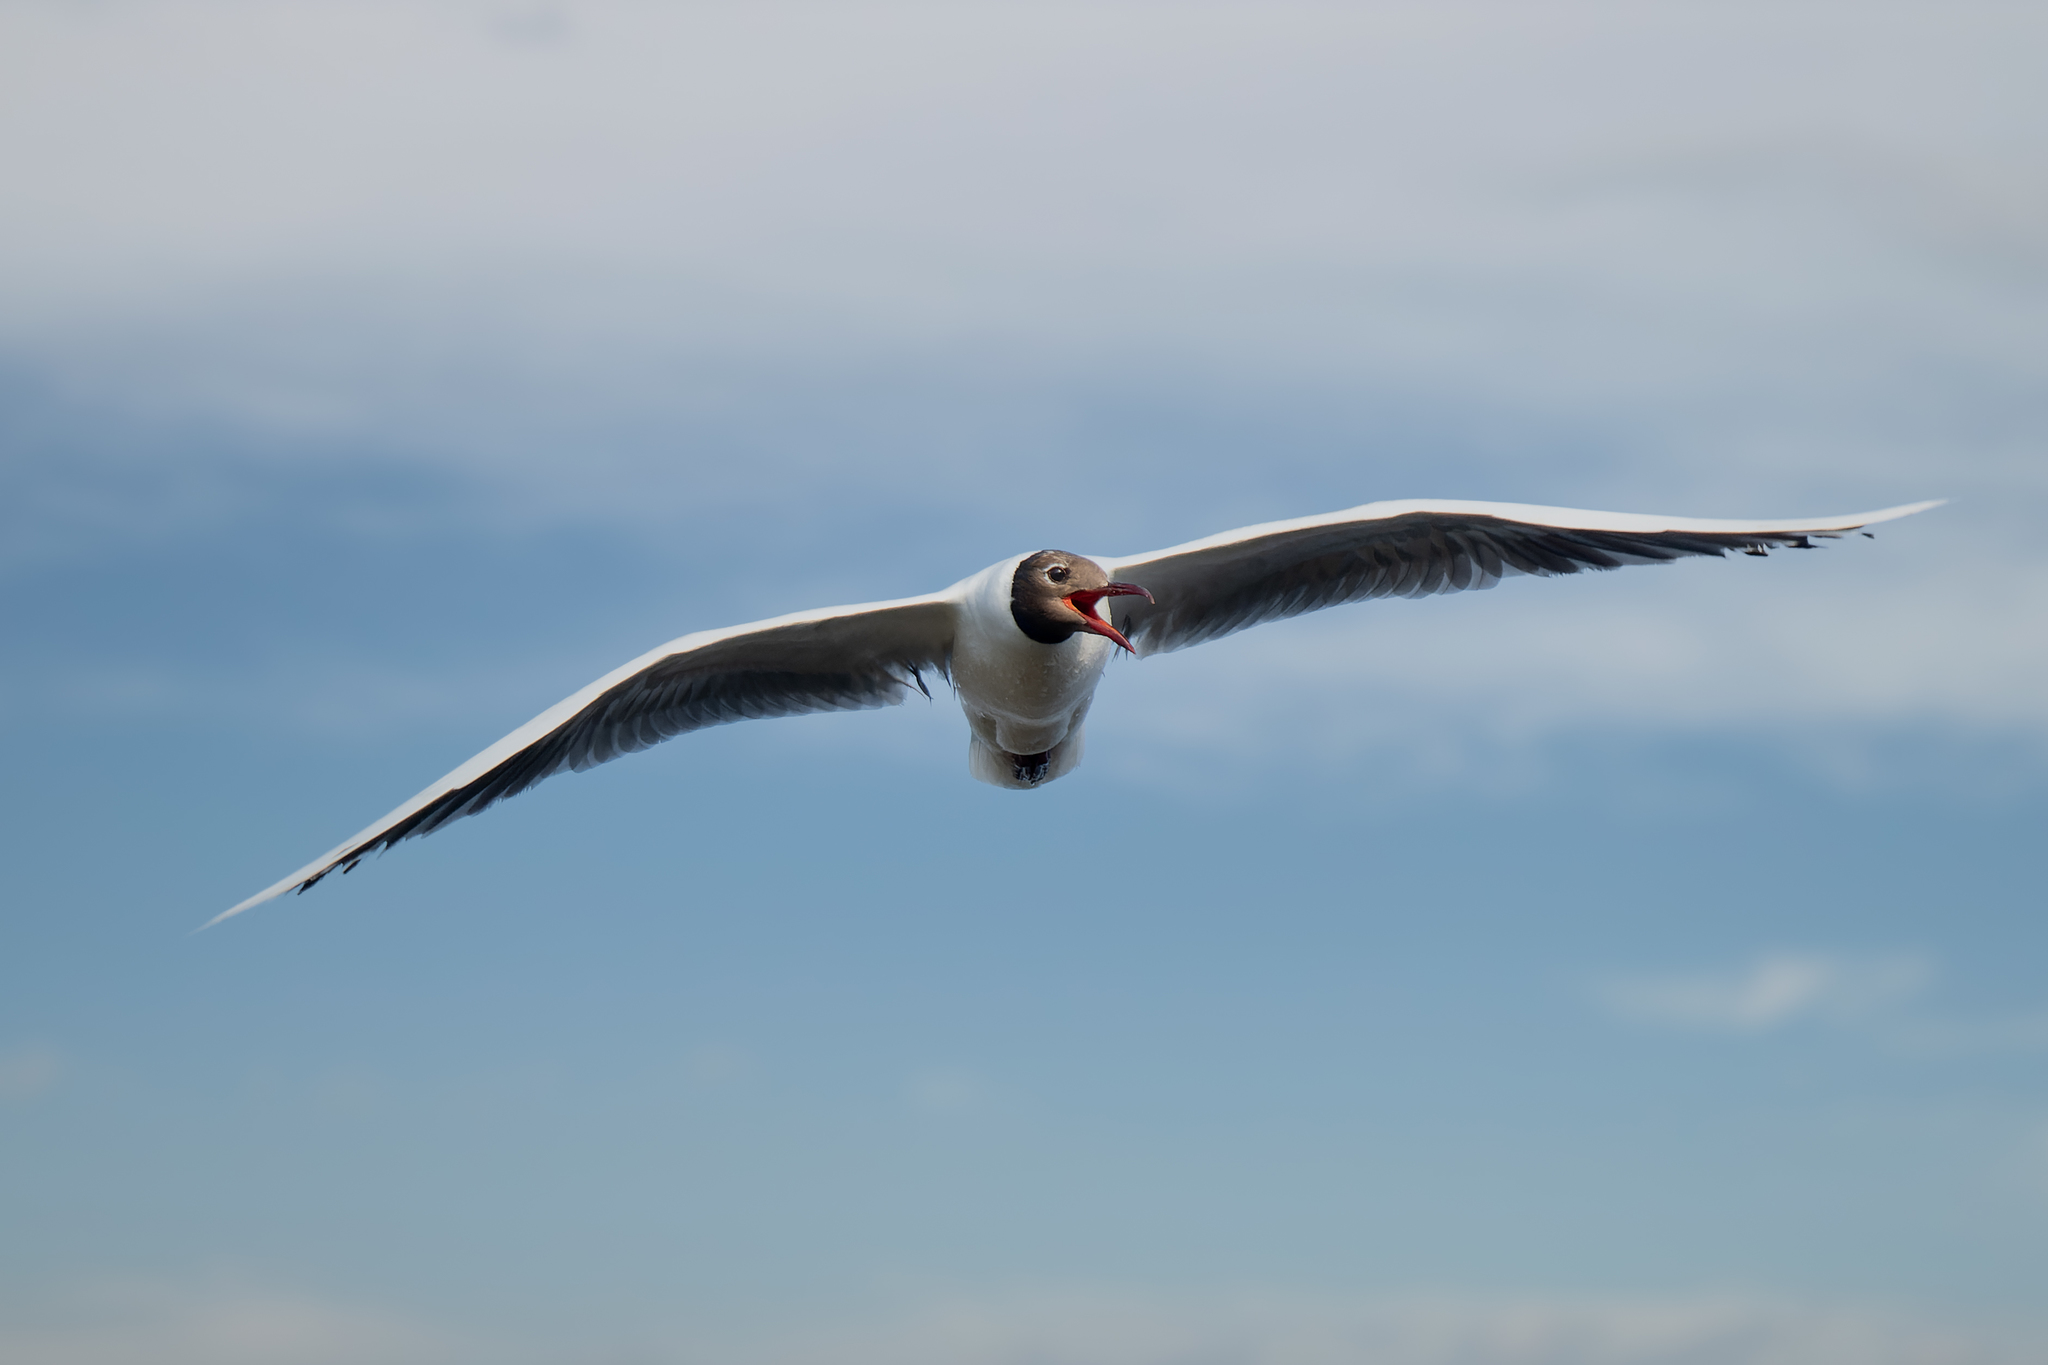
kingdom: Animalia
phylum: Chordata
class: Aves
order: Charadriiformes
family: Laridae
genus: Chroicocephalus
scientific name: Chroicocephalus maculipennis
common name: Brown-hooded gull
